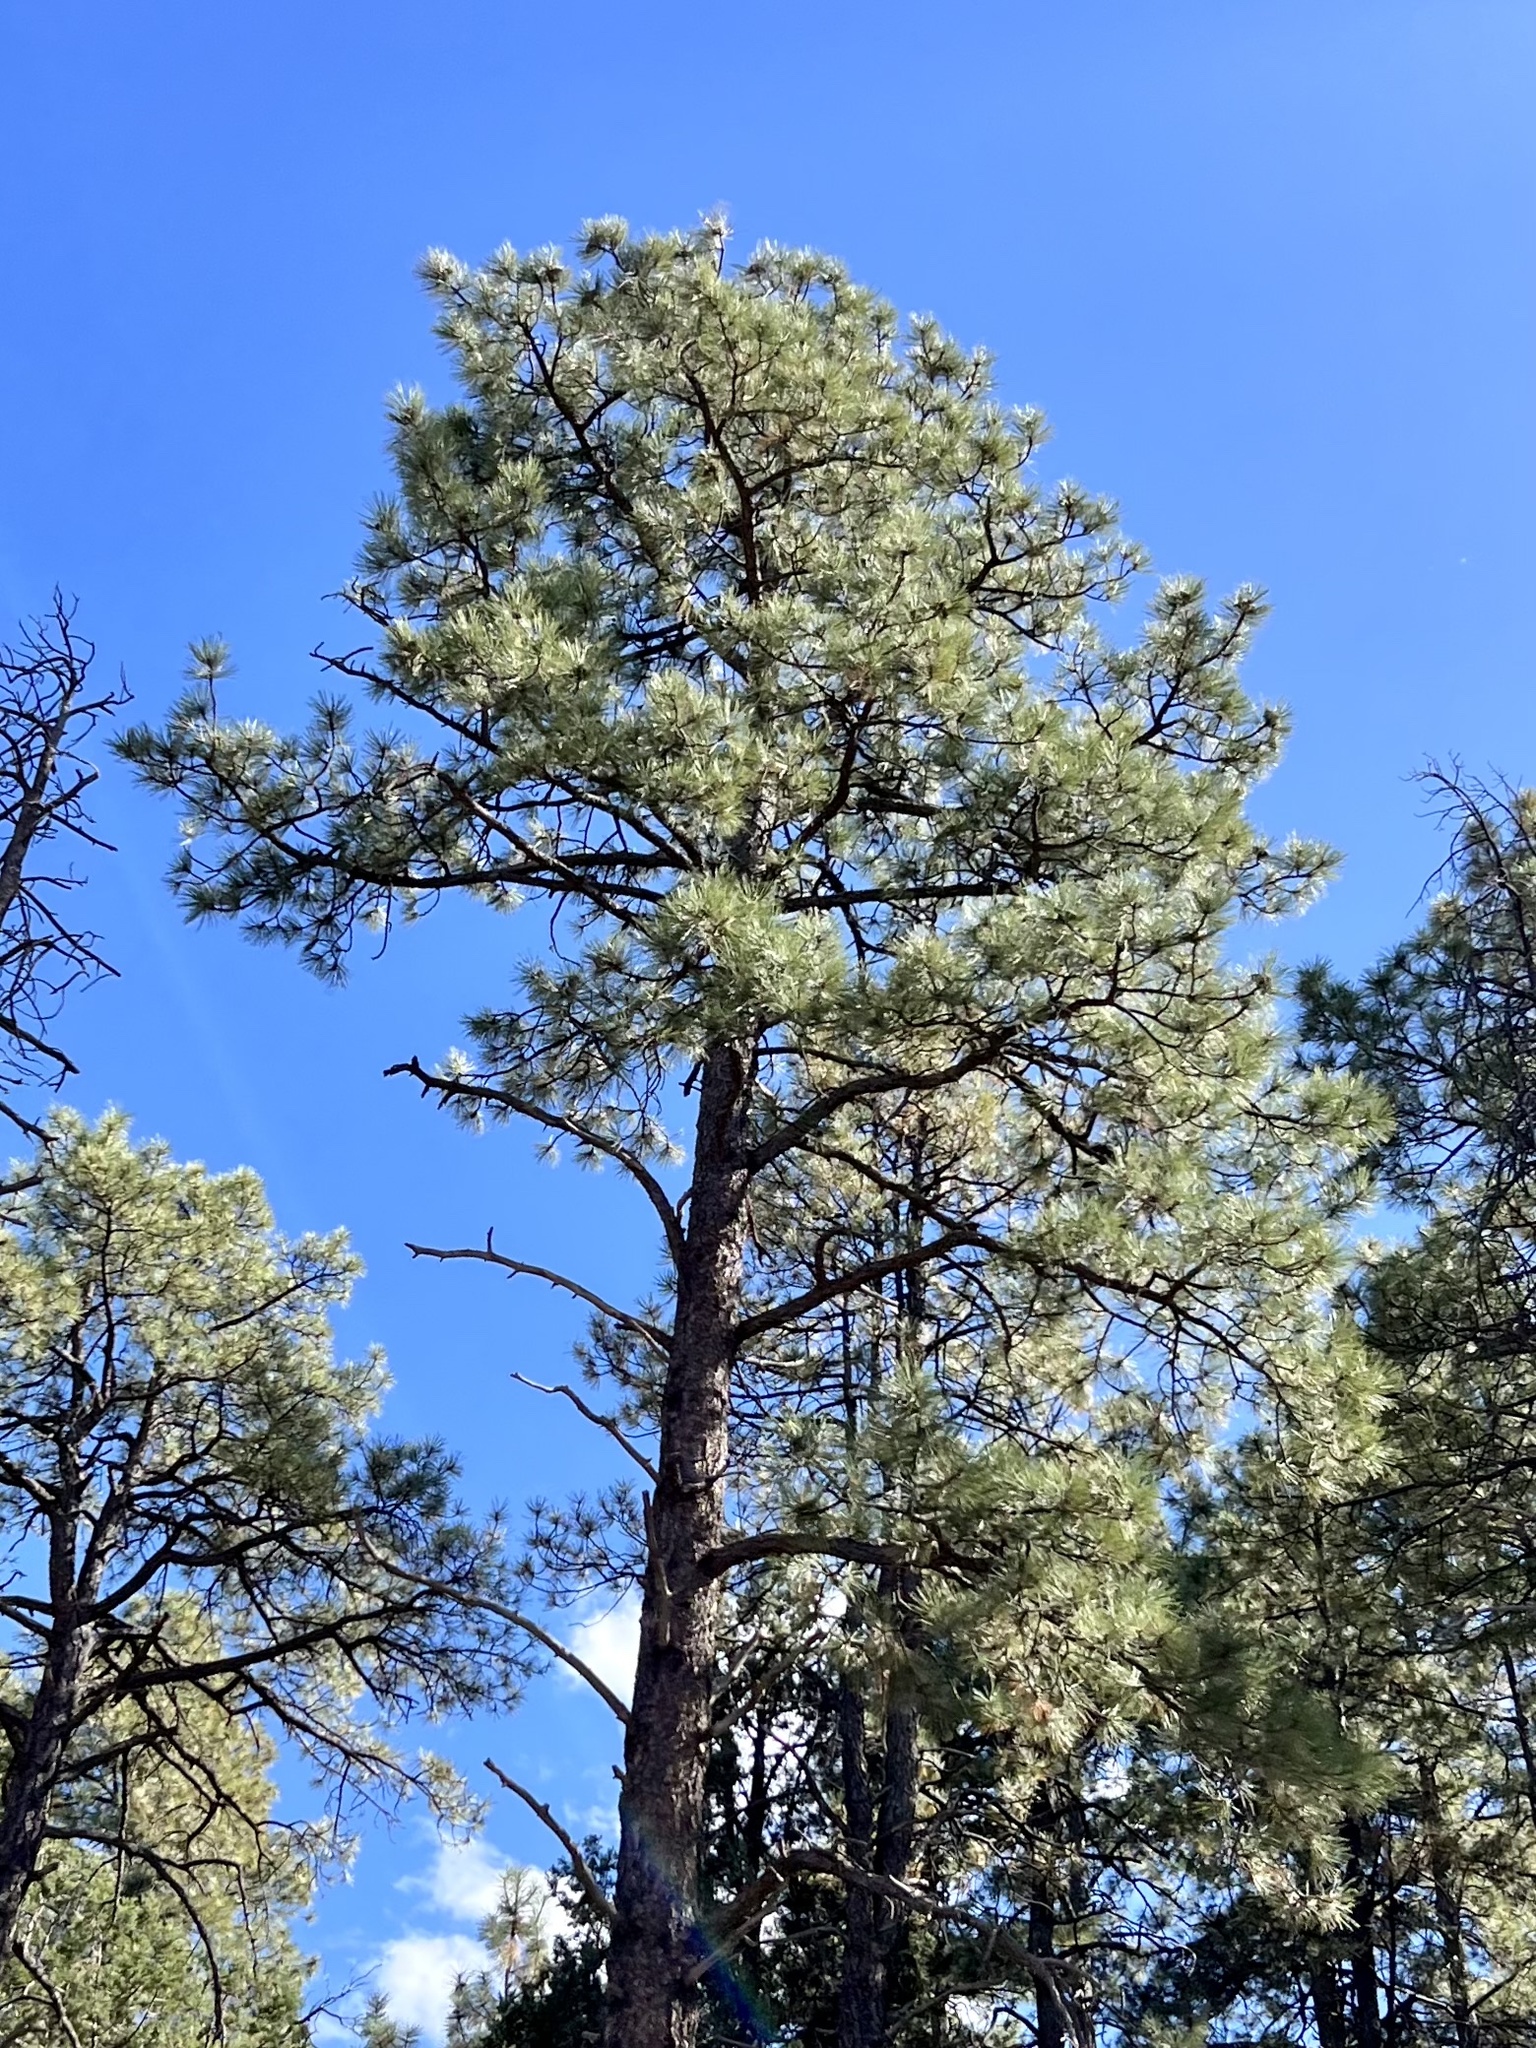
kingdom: Plantae
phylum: Tracheophyta
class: Pinopsida
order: Pinales
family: Pinaceae
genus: Pinus
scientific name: Pinus ponderosa
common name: Western yellow-pine
